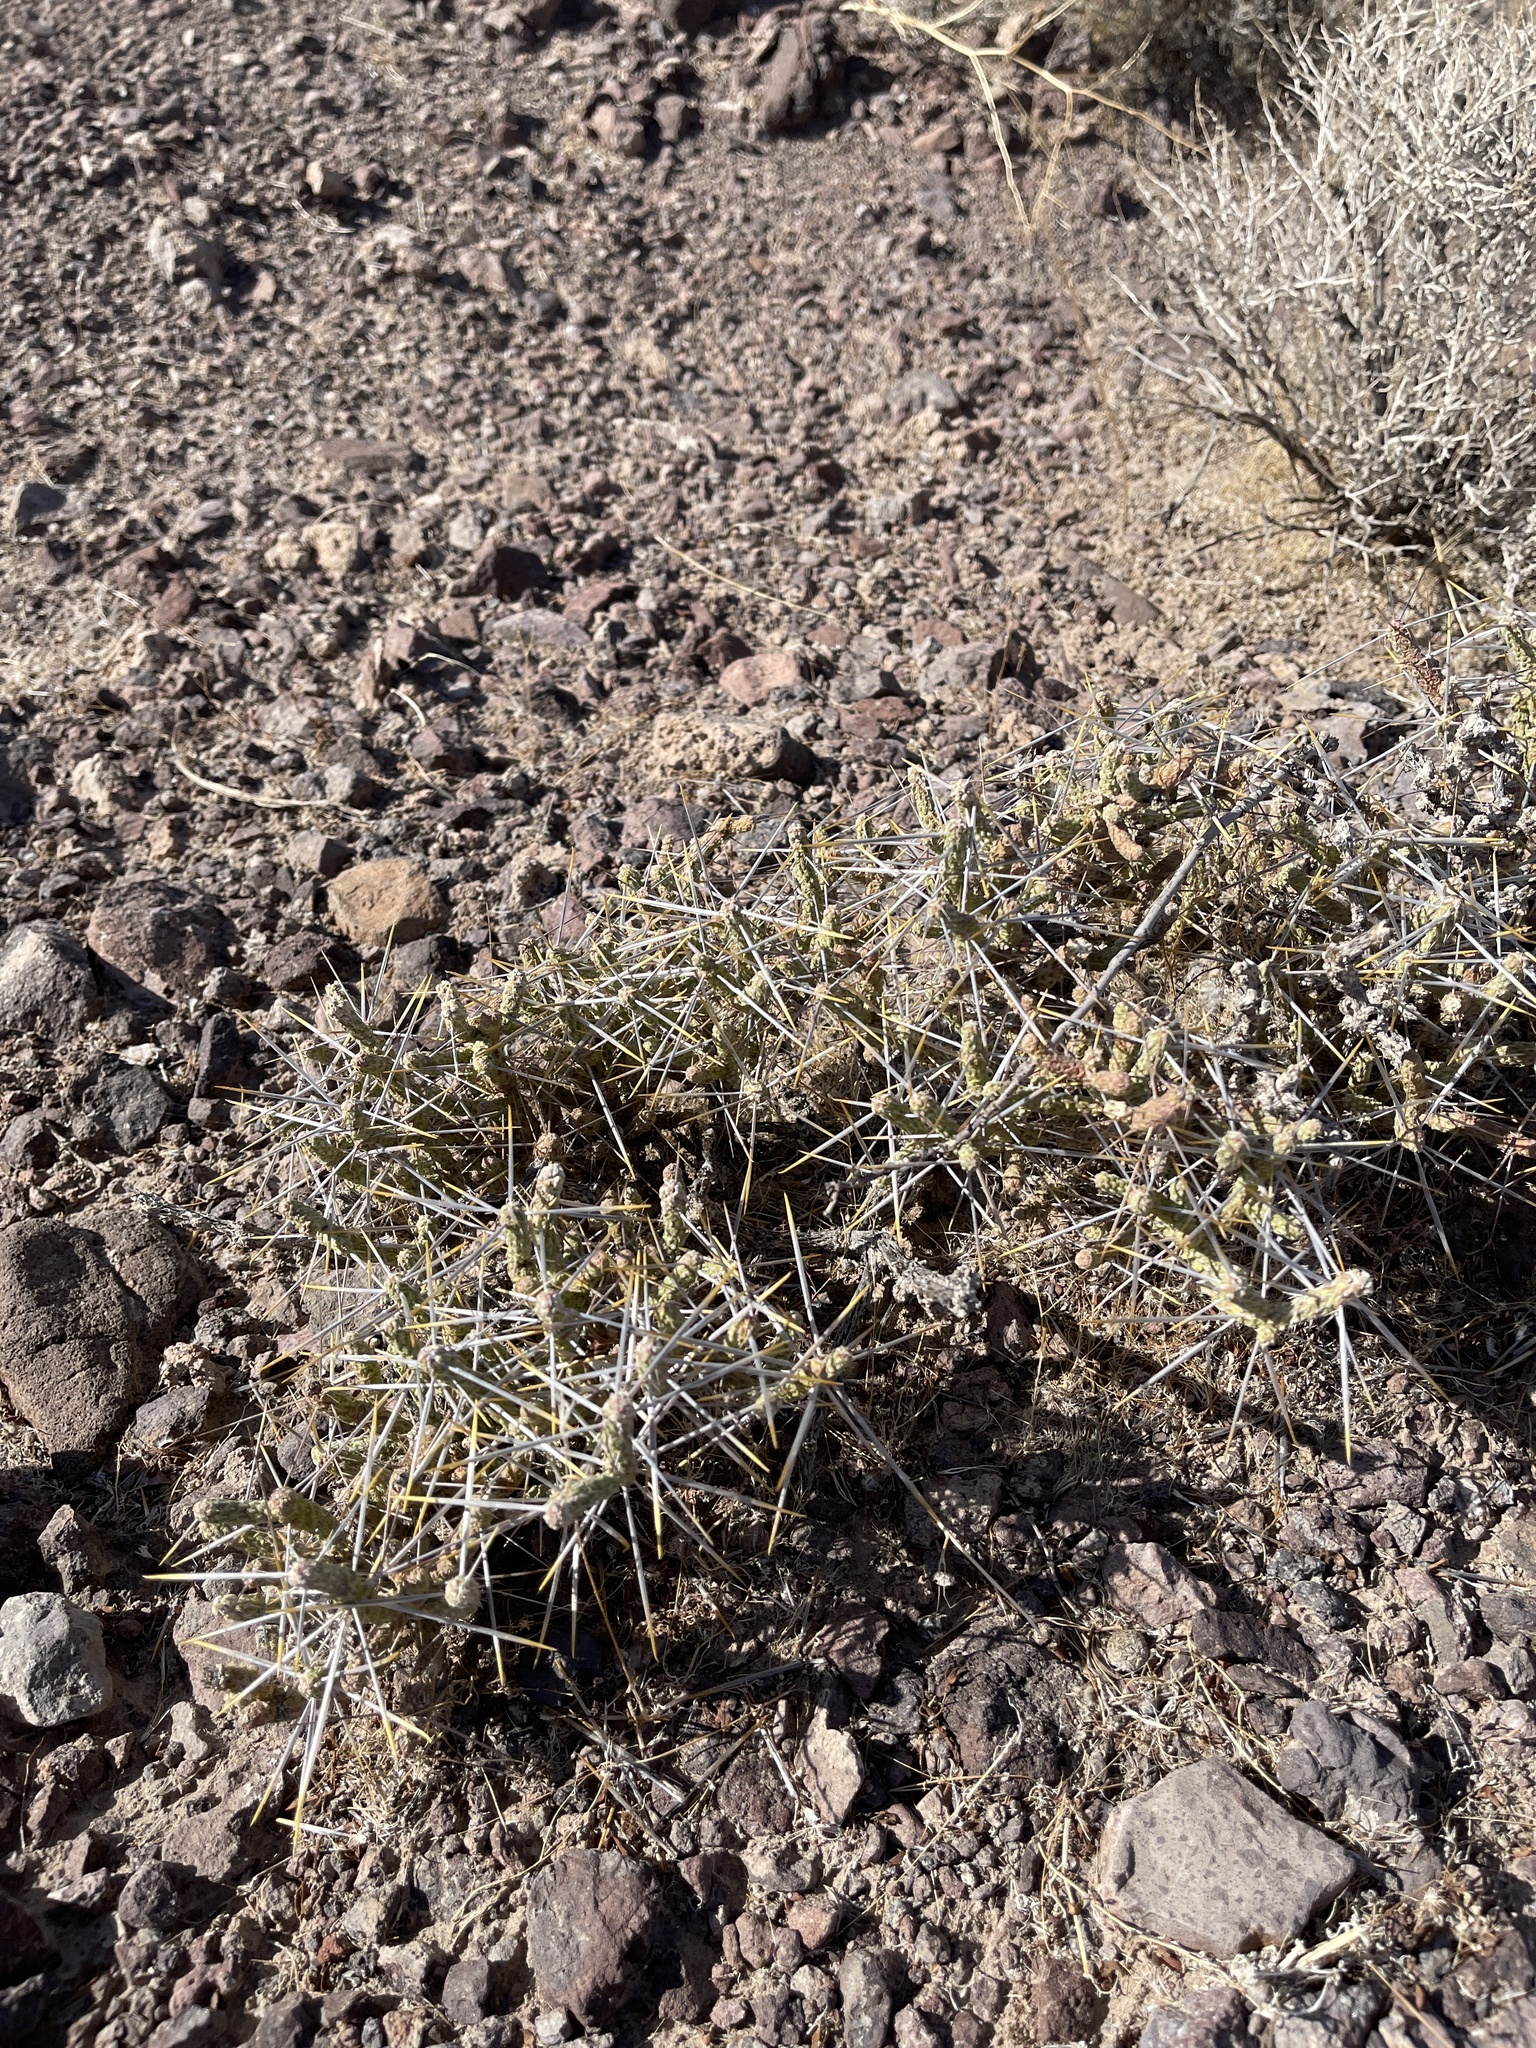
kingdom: Plantae
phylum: Tracheophyta
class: Magnoliopsida
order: Caryophyllales
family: Cactaceae
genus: Cylindropuntia
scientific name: Cylindropuntia ramosissima
